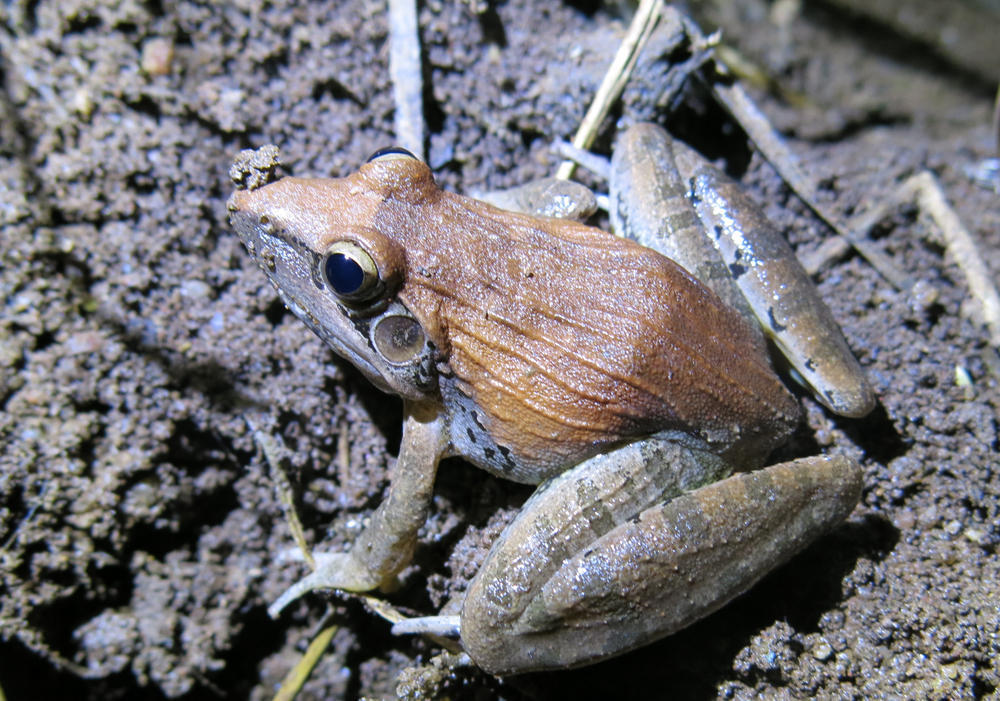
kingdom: Animalia
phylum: Chordata
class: Amphibia
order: Anura
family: Ptychadenidae
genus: Ptychadena
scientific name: Ptychadena anchietae
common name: Anchieta's ridged frog
